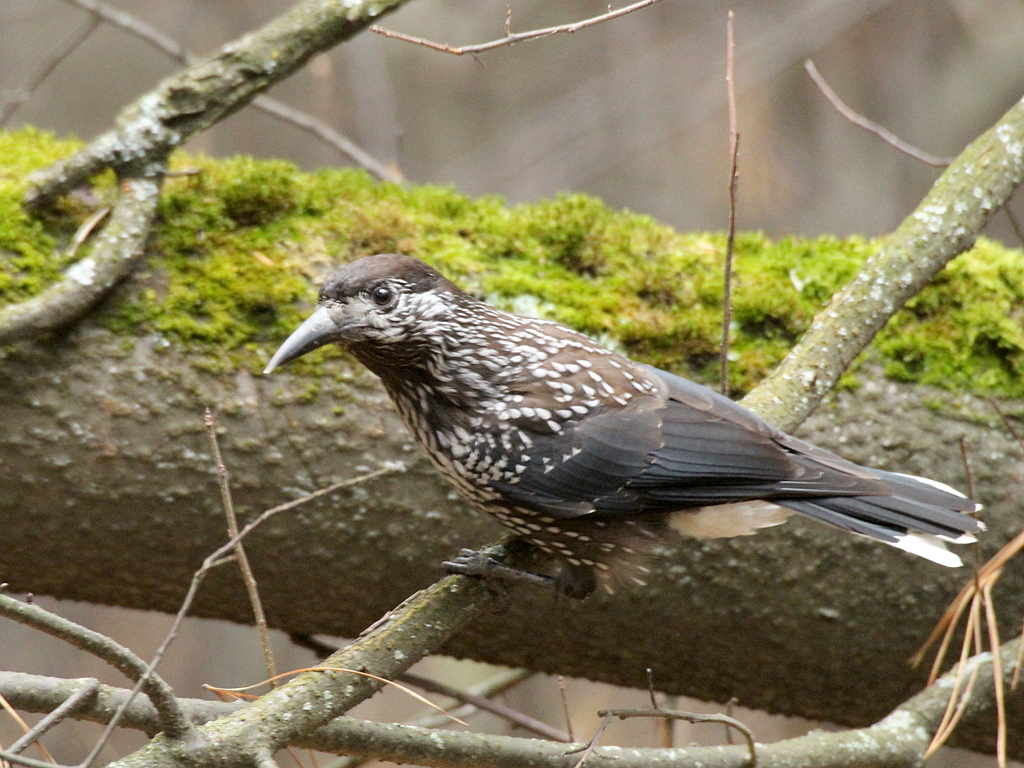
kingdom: Animalia
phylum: Chordata
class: Aves
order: Passeriformes
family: Corvidae
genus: Nucifraga
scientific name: Nucifraga caryocatactes
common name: Spotted nutcracker
